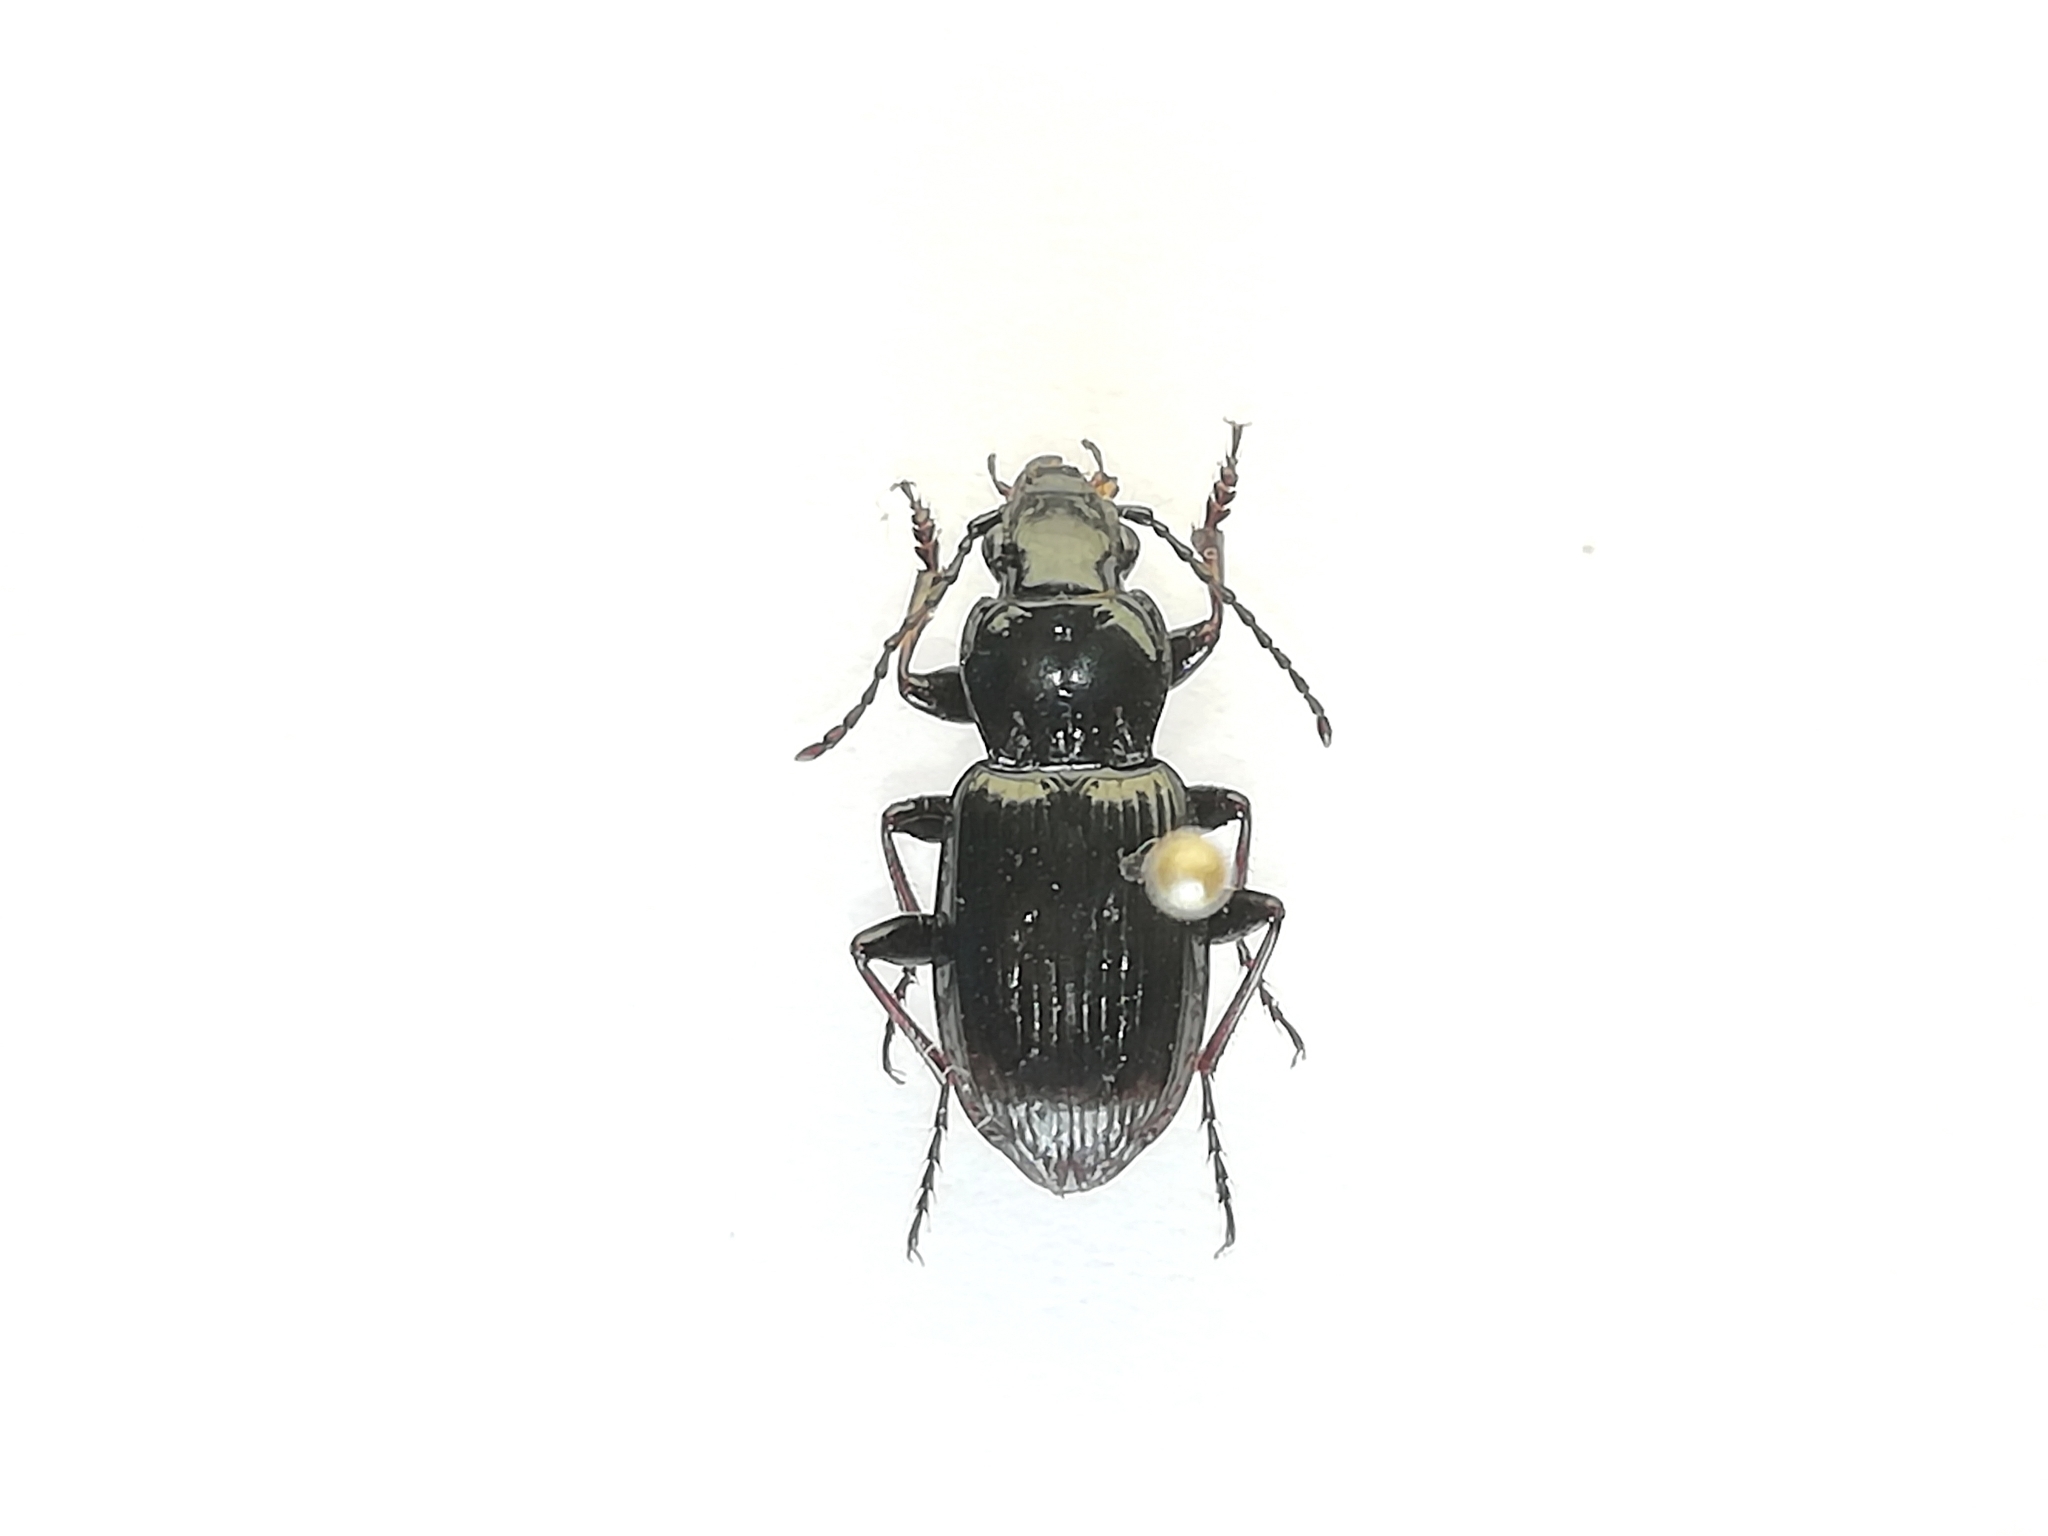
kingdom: Animalia
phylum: Arthropoda
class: Insecta
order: Coleoptera
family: Carabidae
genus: Pterostichus
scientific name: Pterostichus oblongopunctatus
